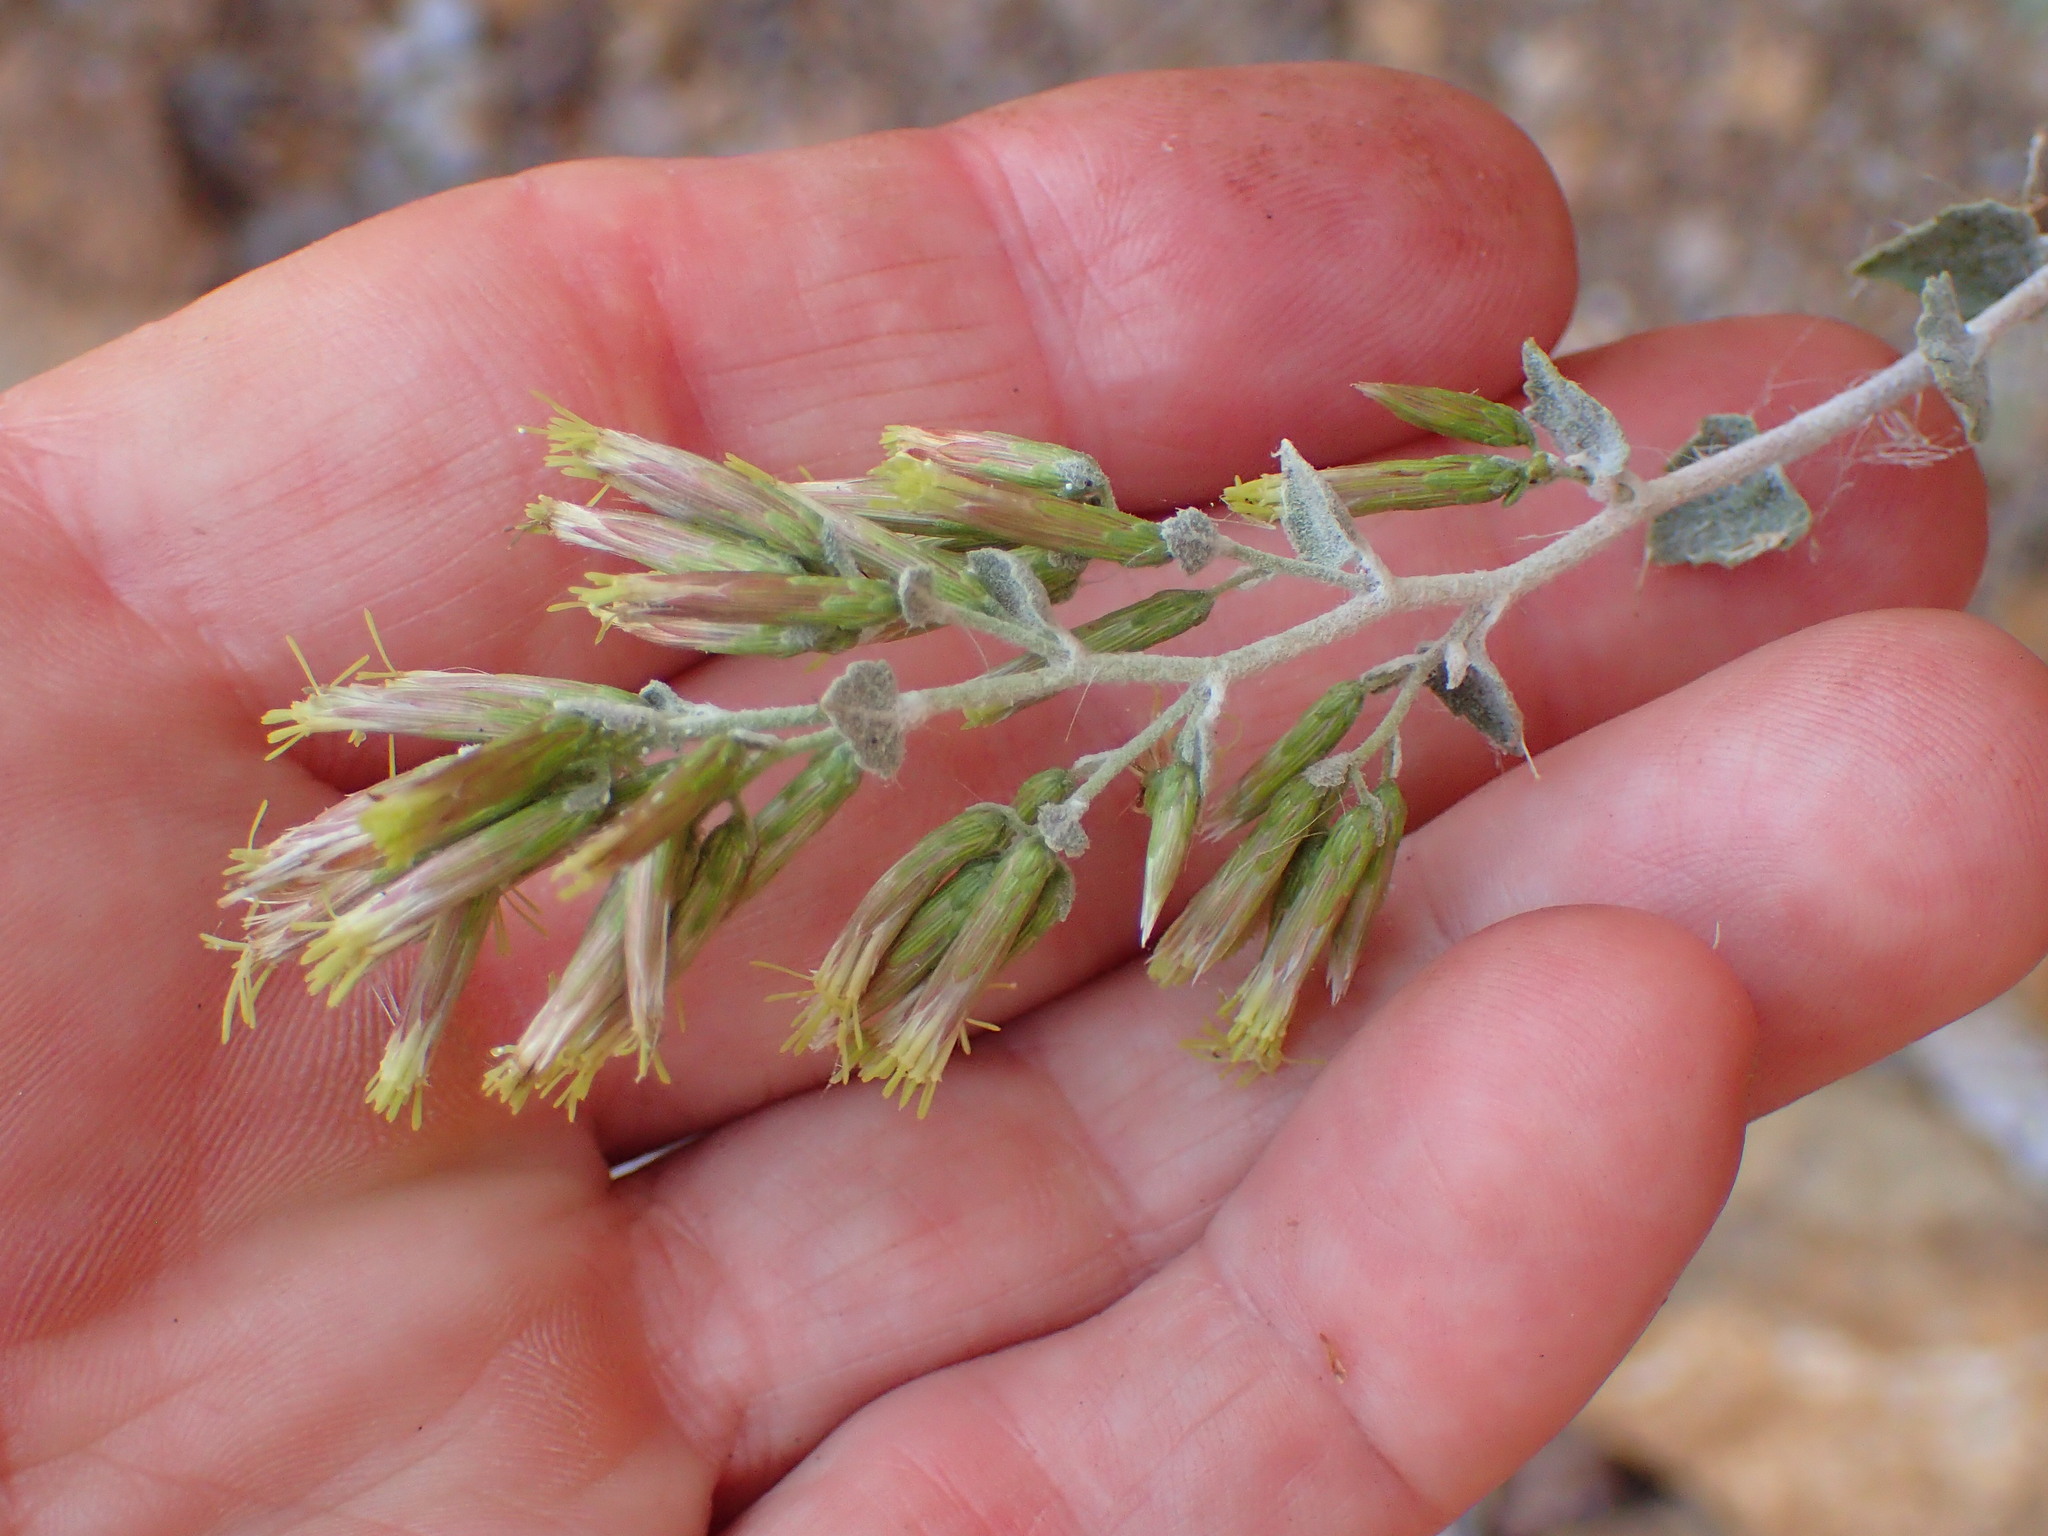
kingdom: Plantae
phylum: Tracheophyta
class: Magnoliopsida
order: Asterales
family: Asteraceae
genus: Brickellia
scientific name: Brickellia californica
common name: California brickellbush
